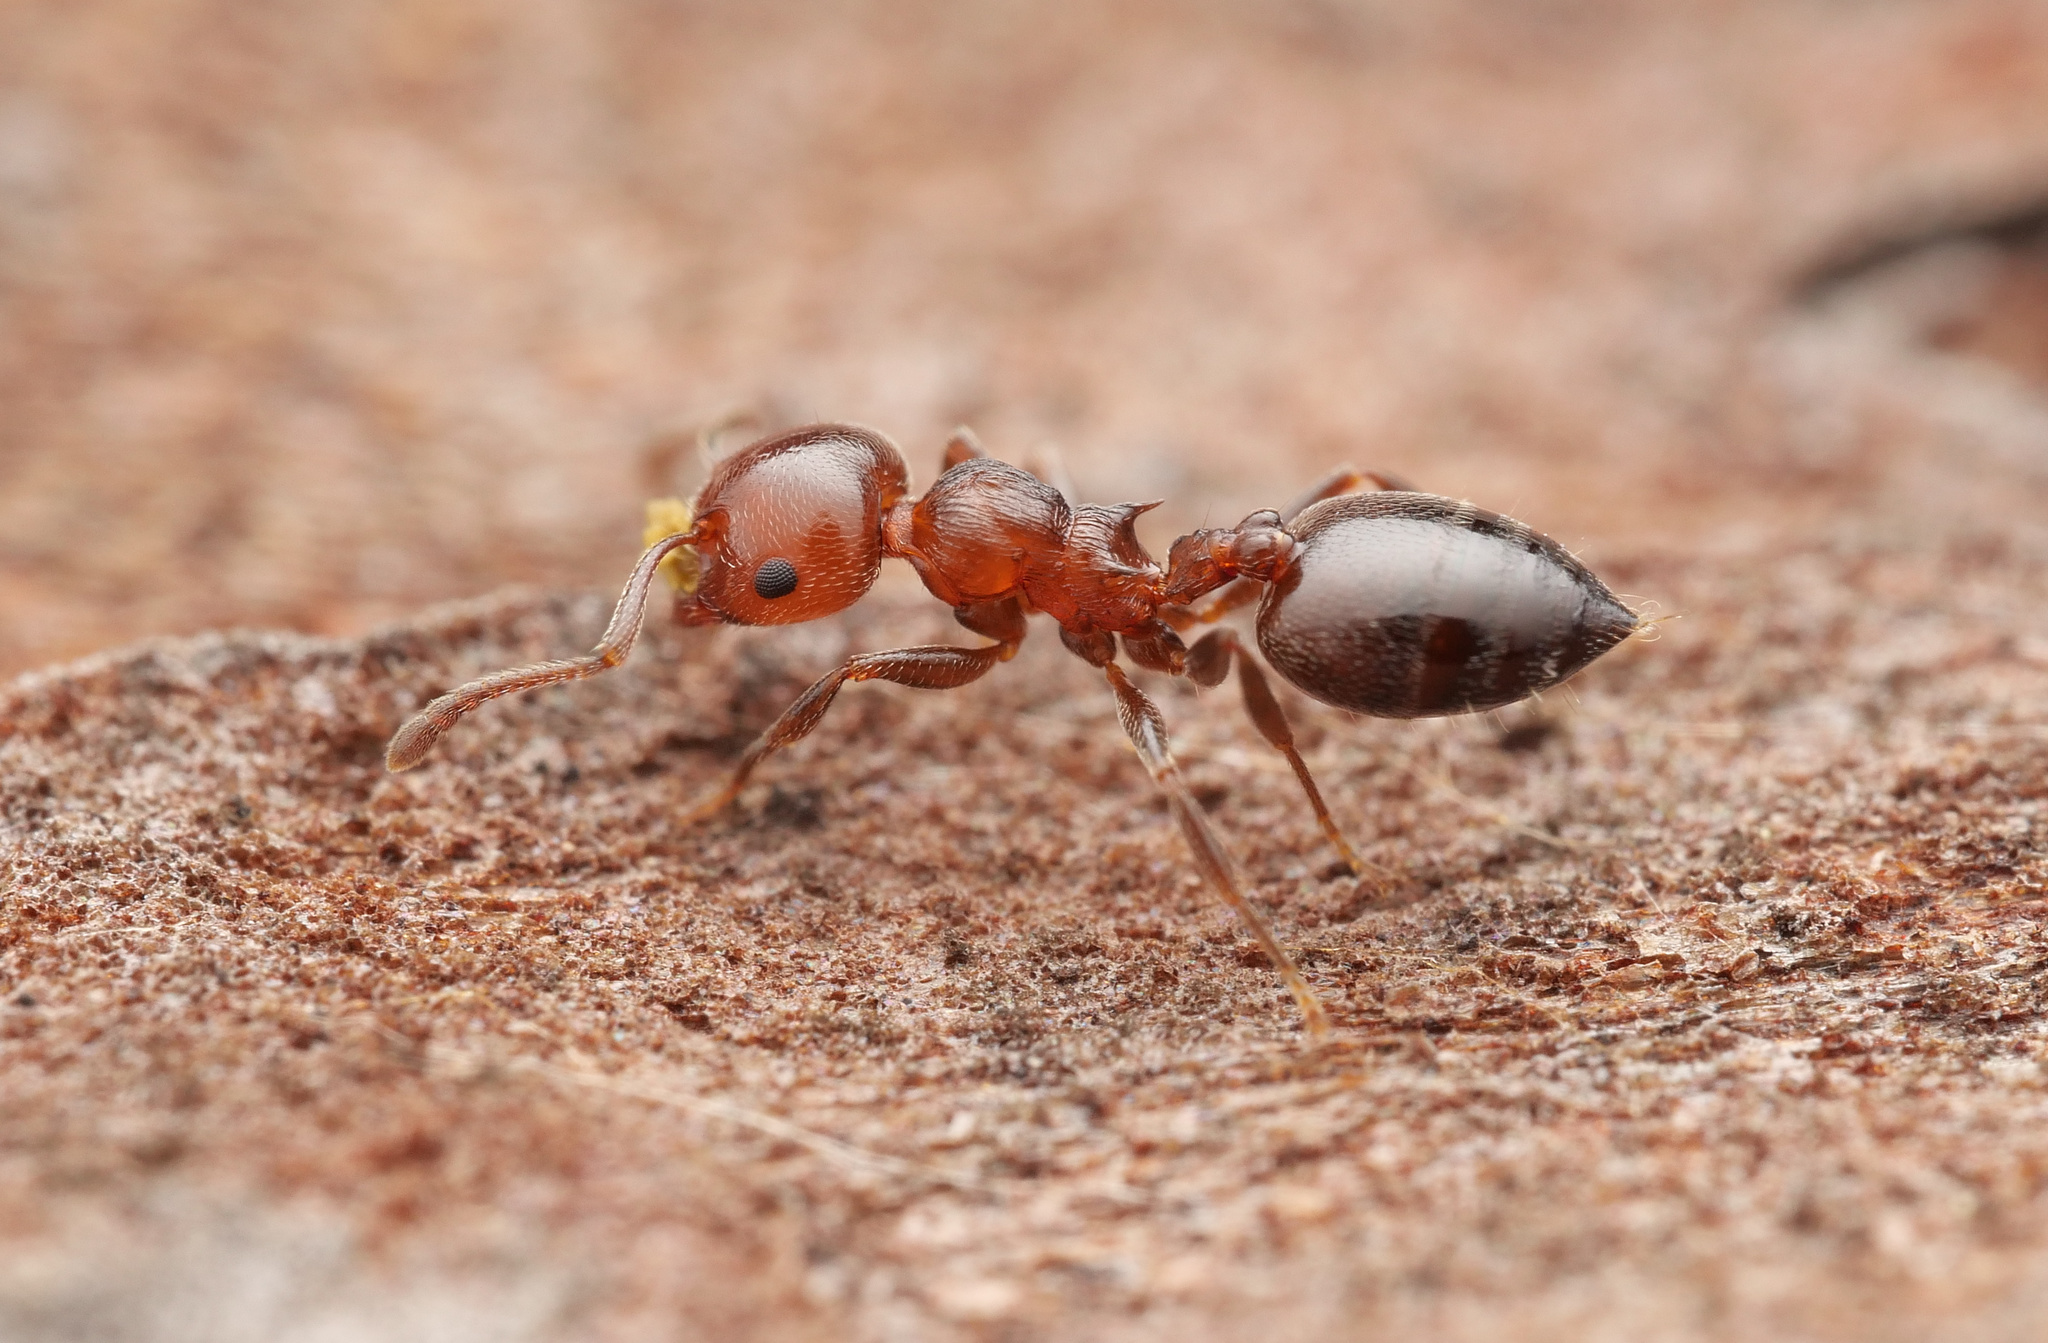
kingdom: Animalia
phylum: Arthropoda
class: Insecta
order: Hymenoptera
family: Formicidae
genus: Crematogaster
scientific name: Crematogaster schmidti
